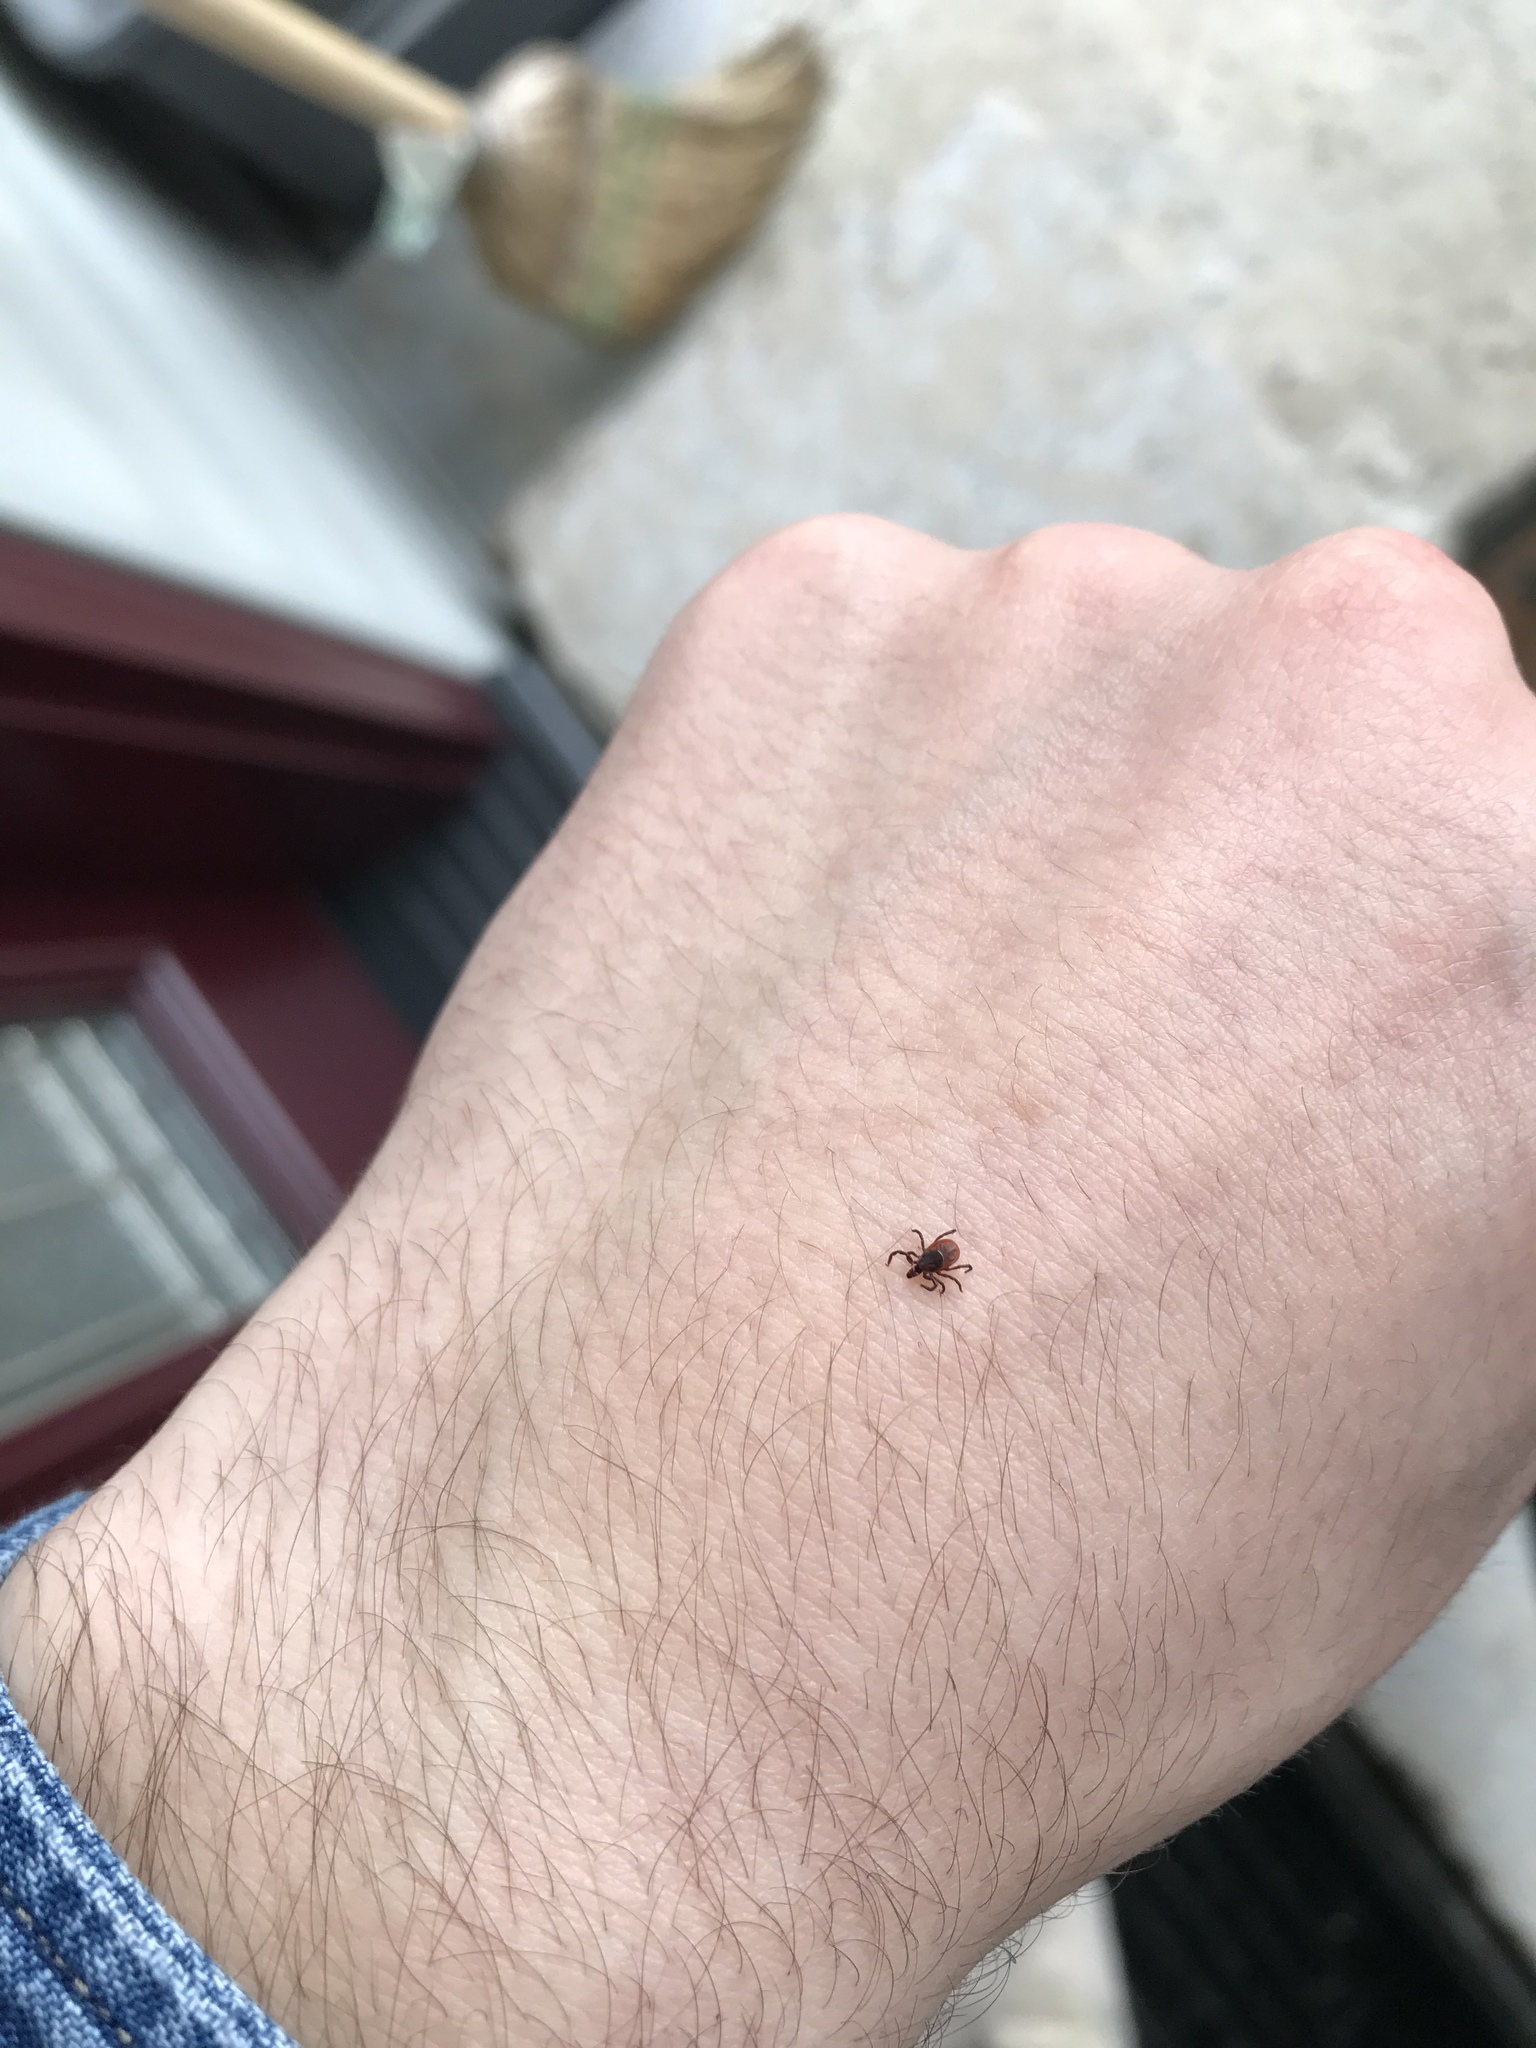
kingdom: Animalia
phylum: Arthropoda
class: Arachnida
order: Ixodida
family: Ixodidae
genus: Ixodes
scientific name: Ixodes scapularis
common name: Black legged tick
